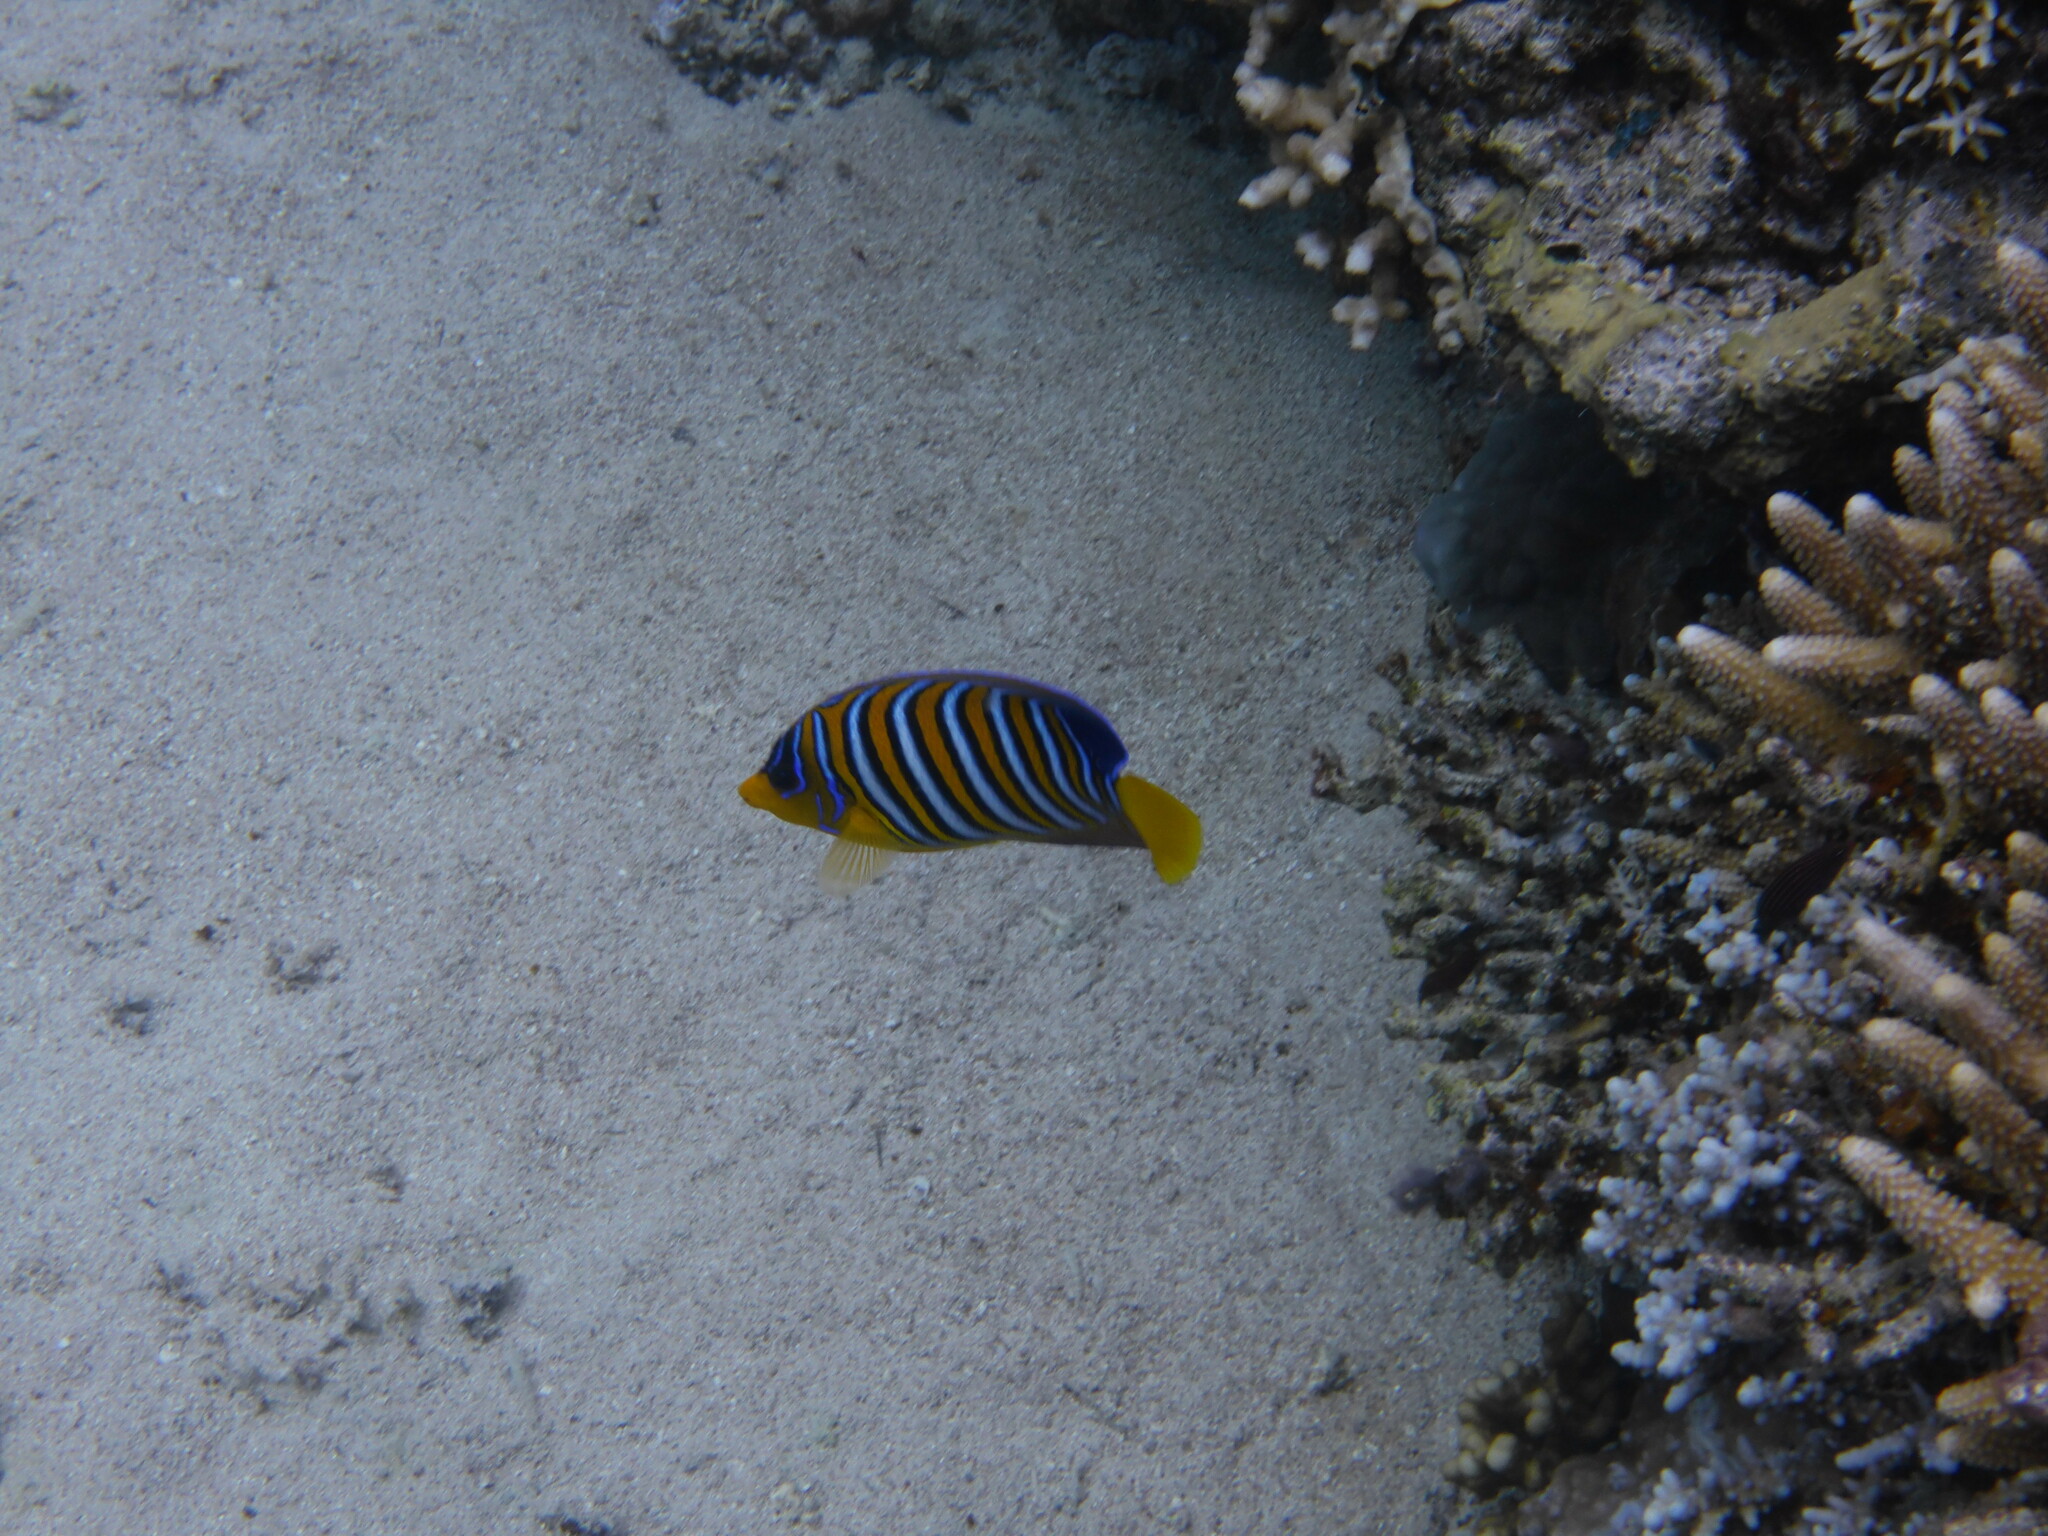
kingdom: Animalia
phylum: Chordata
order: Perciformes
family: Pomacanthidae
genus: Pygoplites
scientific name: Pygoplites diacanthus
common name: Regal angelfish
